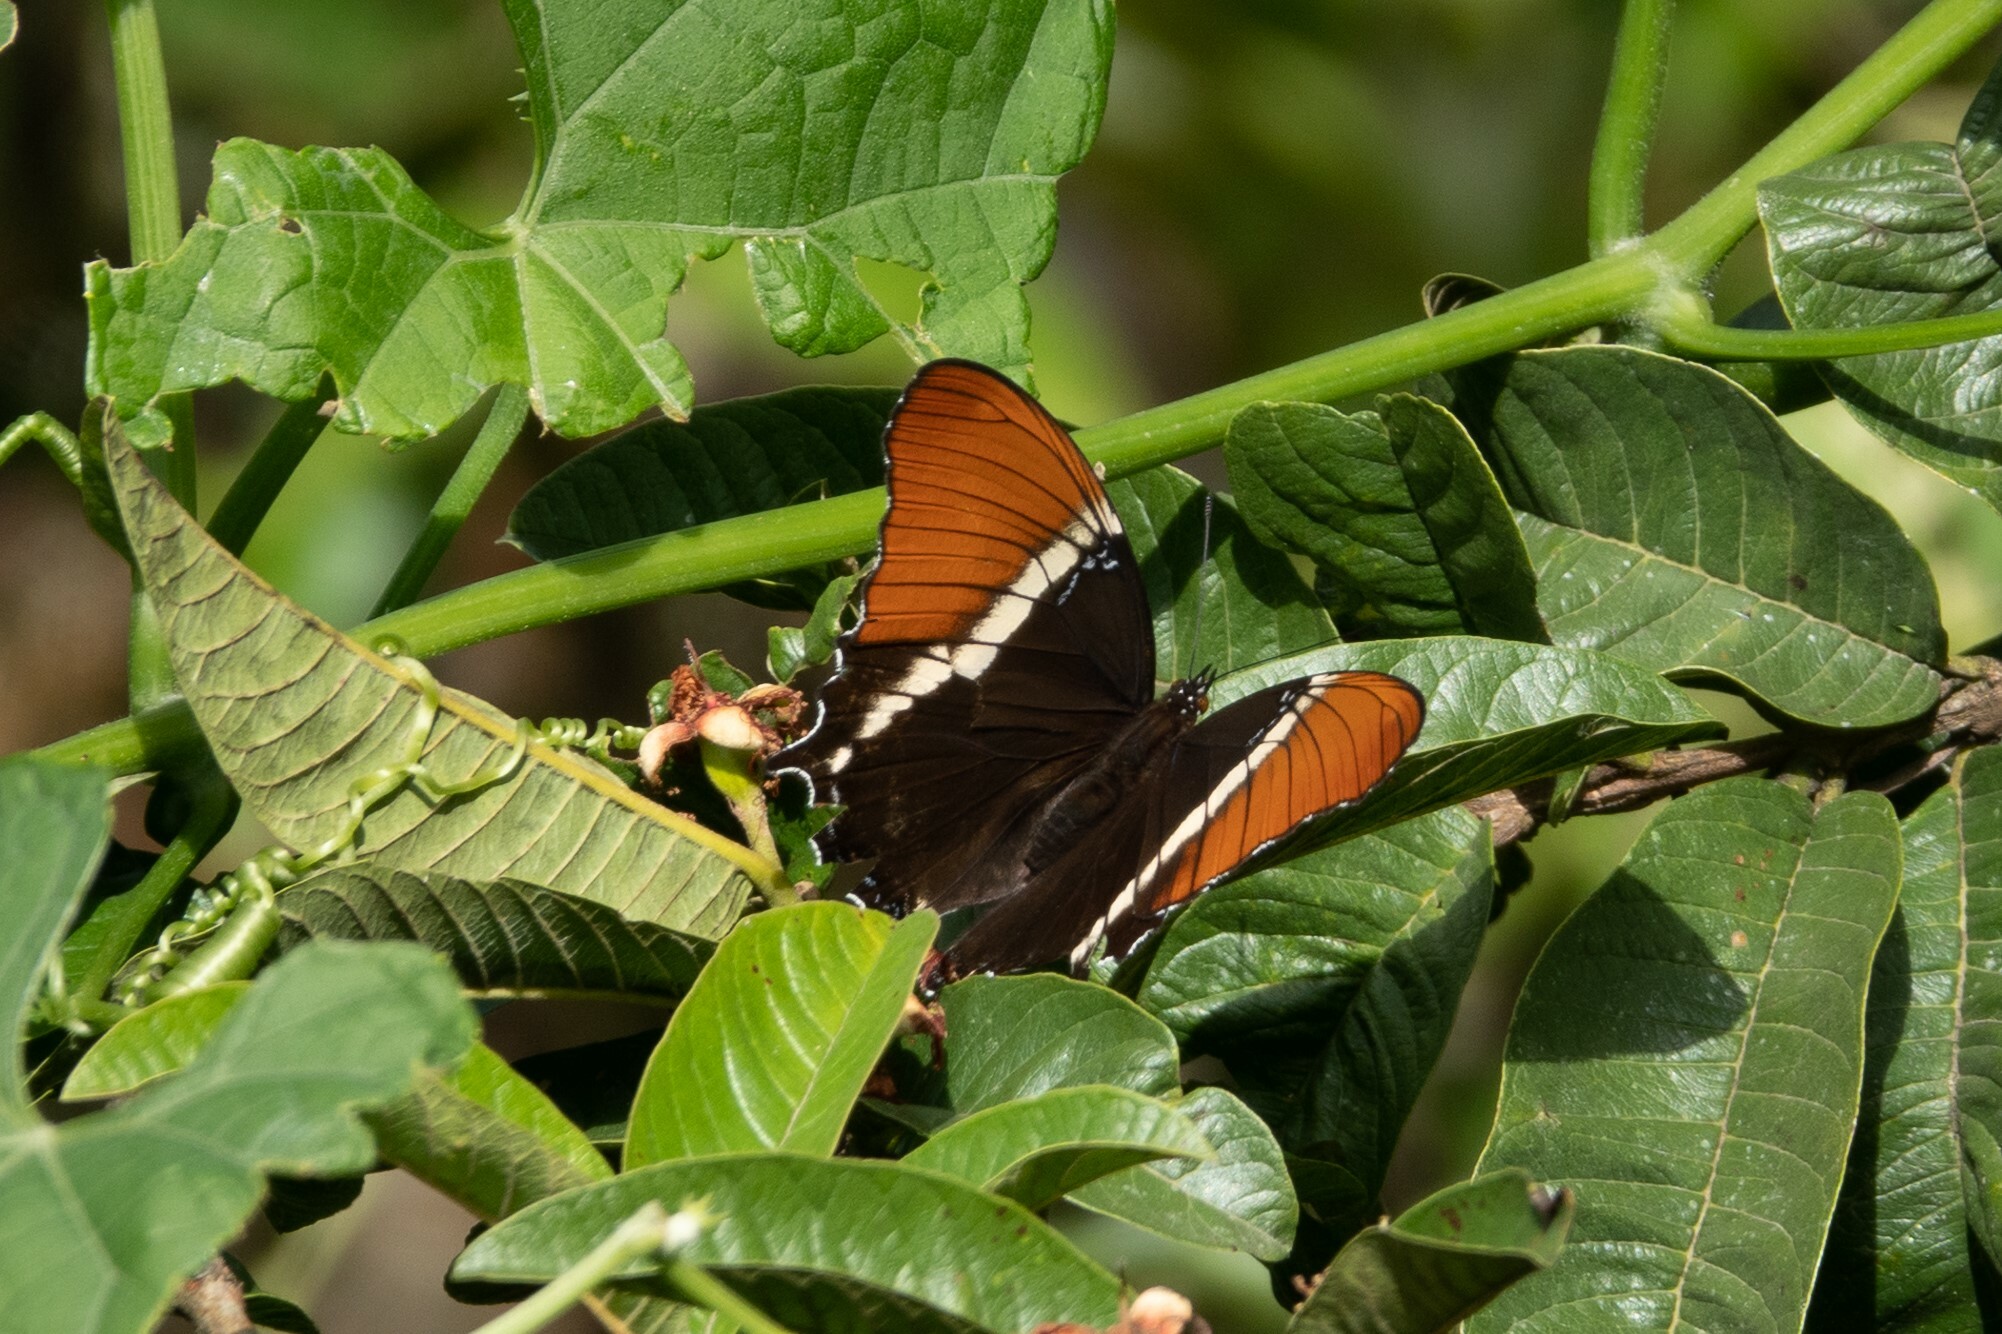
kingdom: Animalia
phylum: Arthropoda
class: Insecta
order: Lepidoptera
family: Nymphalidae
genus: Siproeta
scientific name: Siproeta epaphus
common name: Rusty-tipped page
